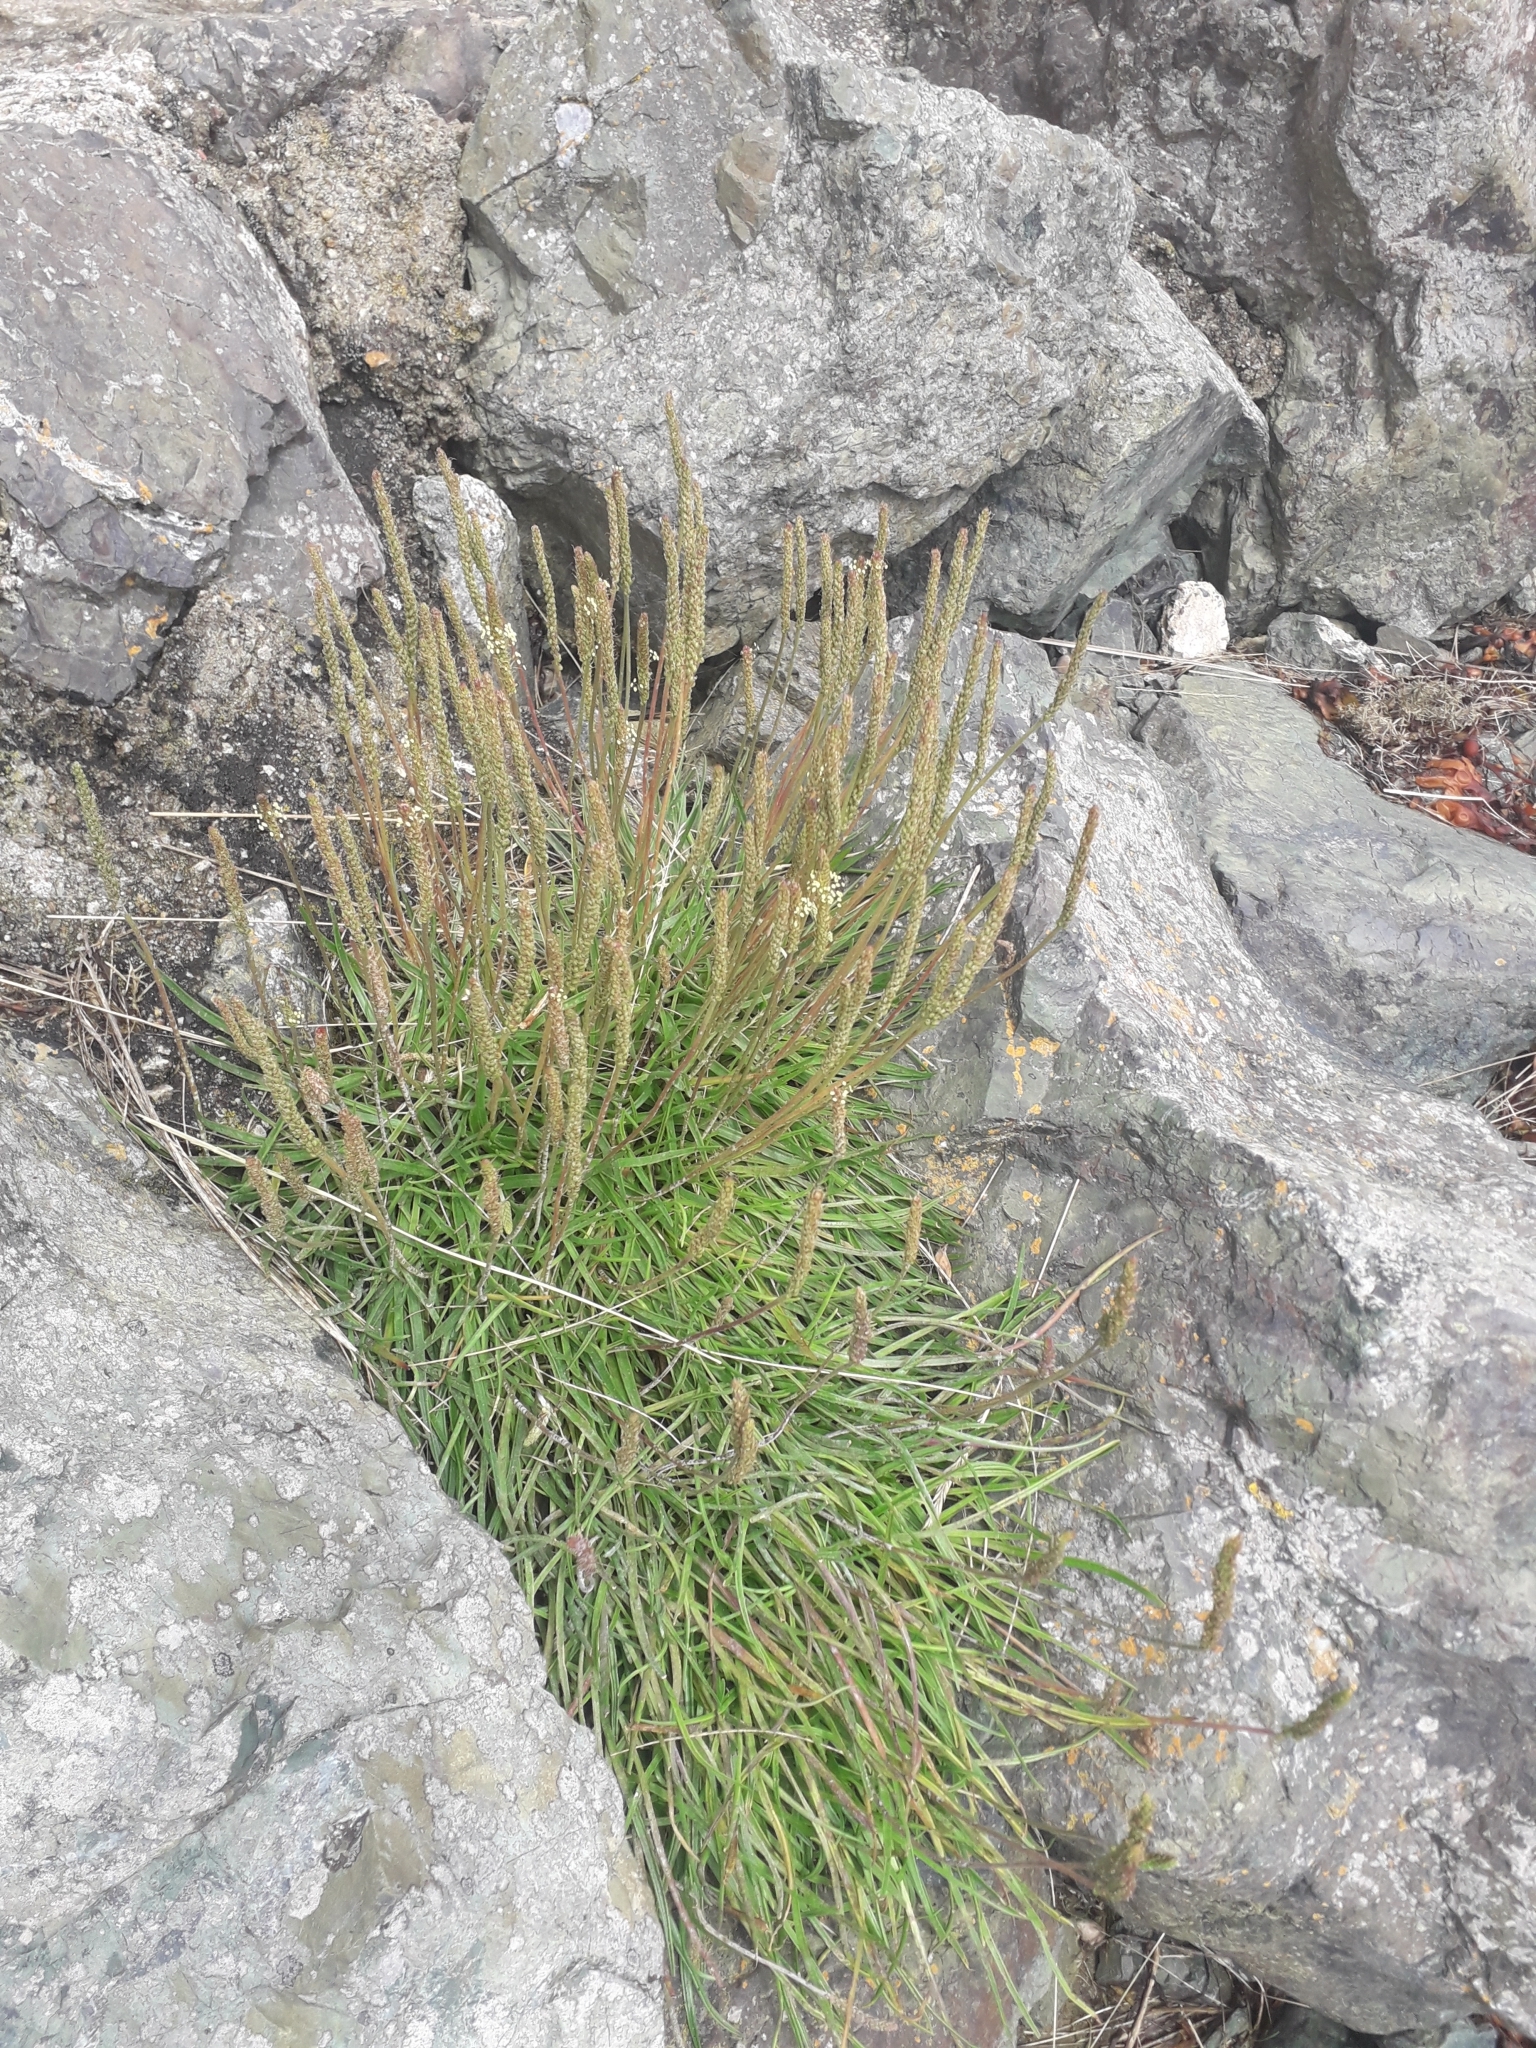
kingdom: Plantae
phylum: Tracheophyta
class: Magnoliopsida
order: Lamiales
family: Plantaginaceae
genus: Plantago
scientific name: Plantago maritima
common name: Sea plantain
